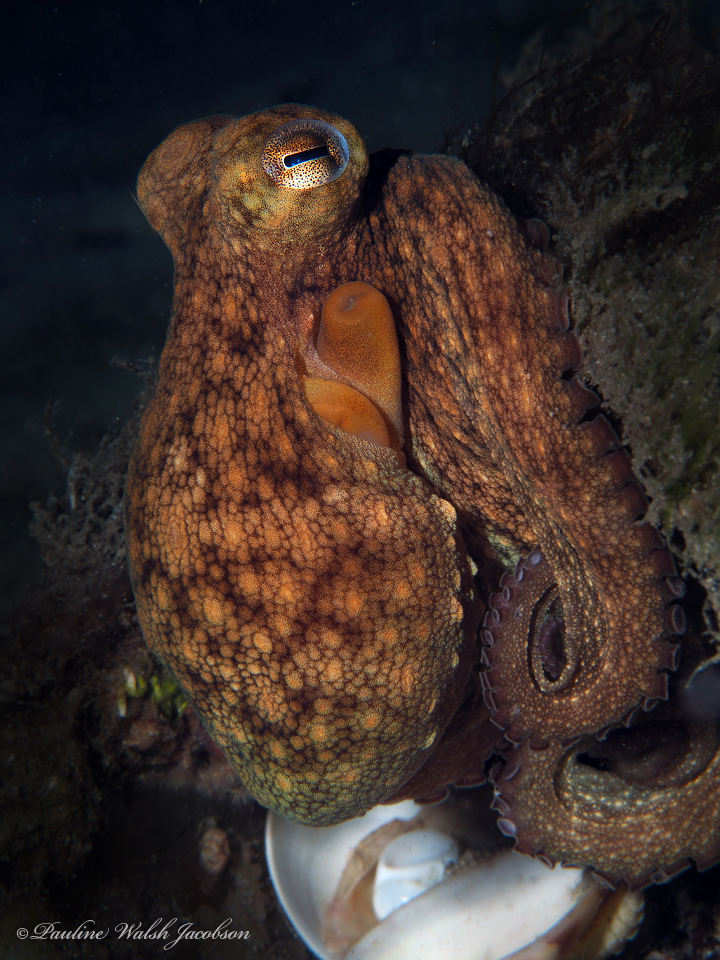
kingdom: Animalia
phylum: Mollusca
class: Cephalopoda
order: Octopoda
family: Octopodidae
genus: Octopus
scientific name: Octopus americanus
